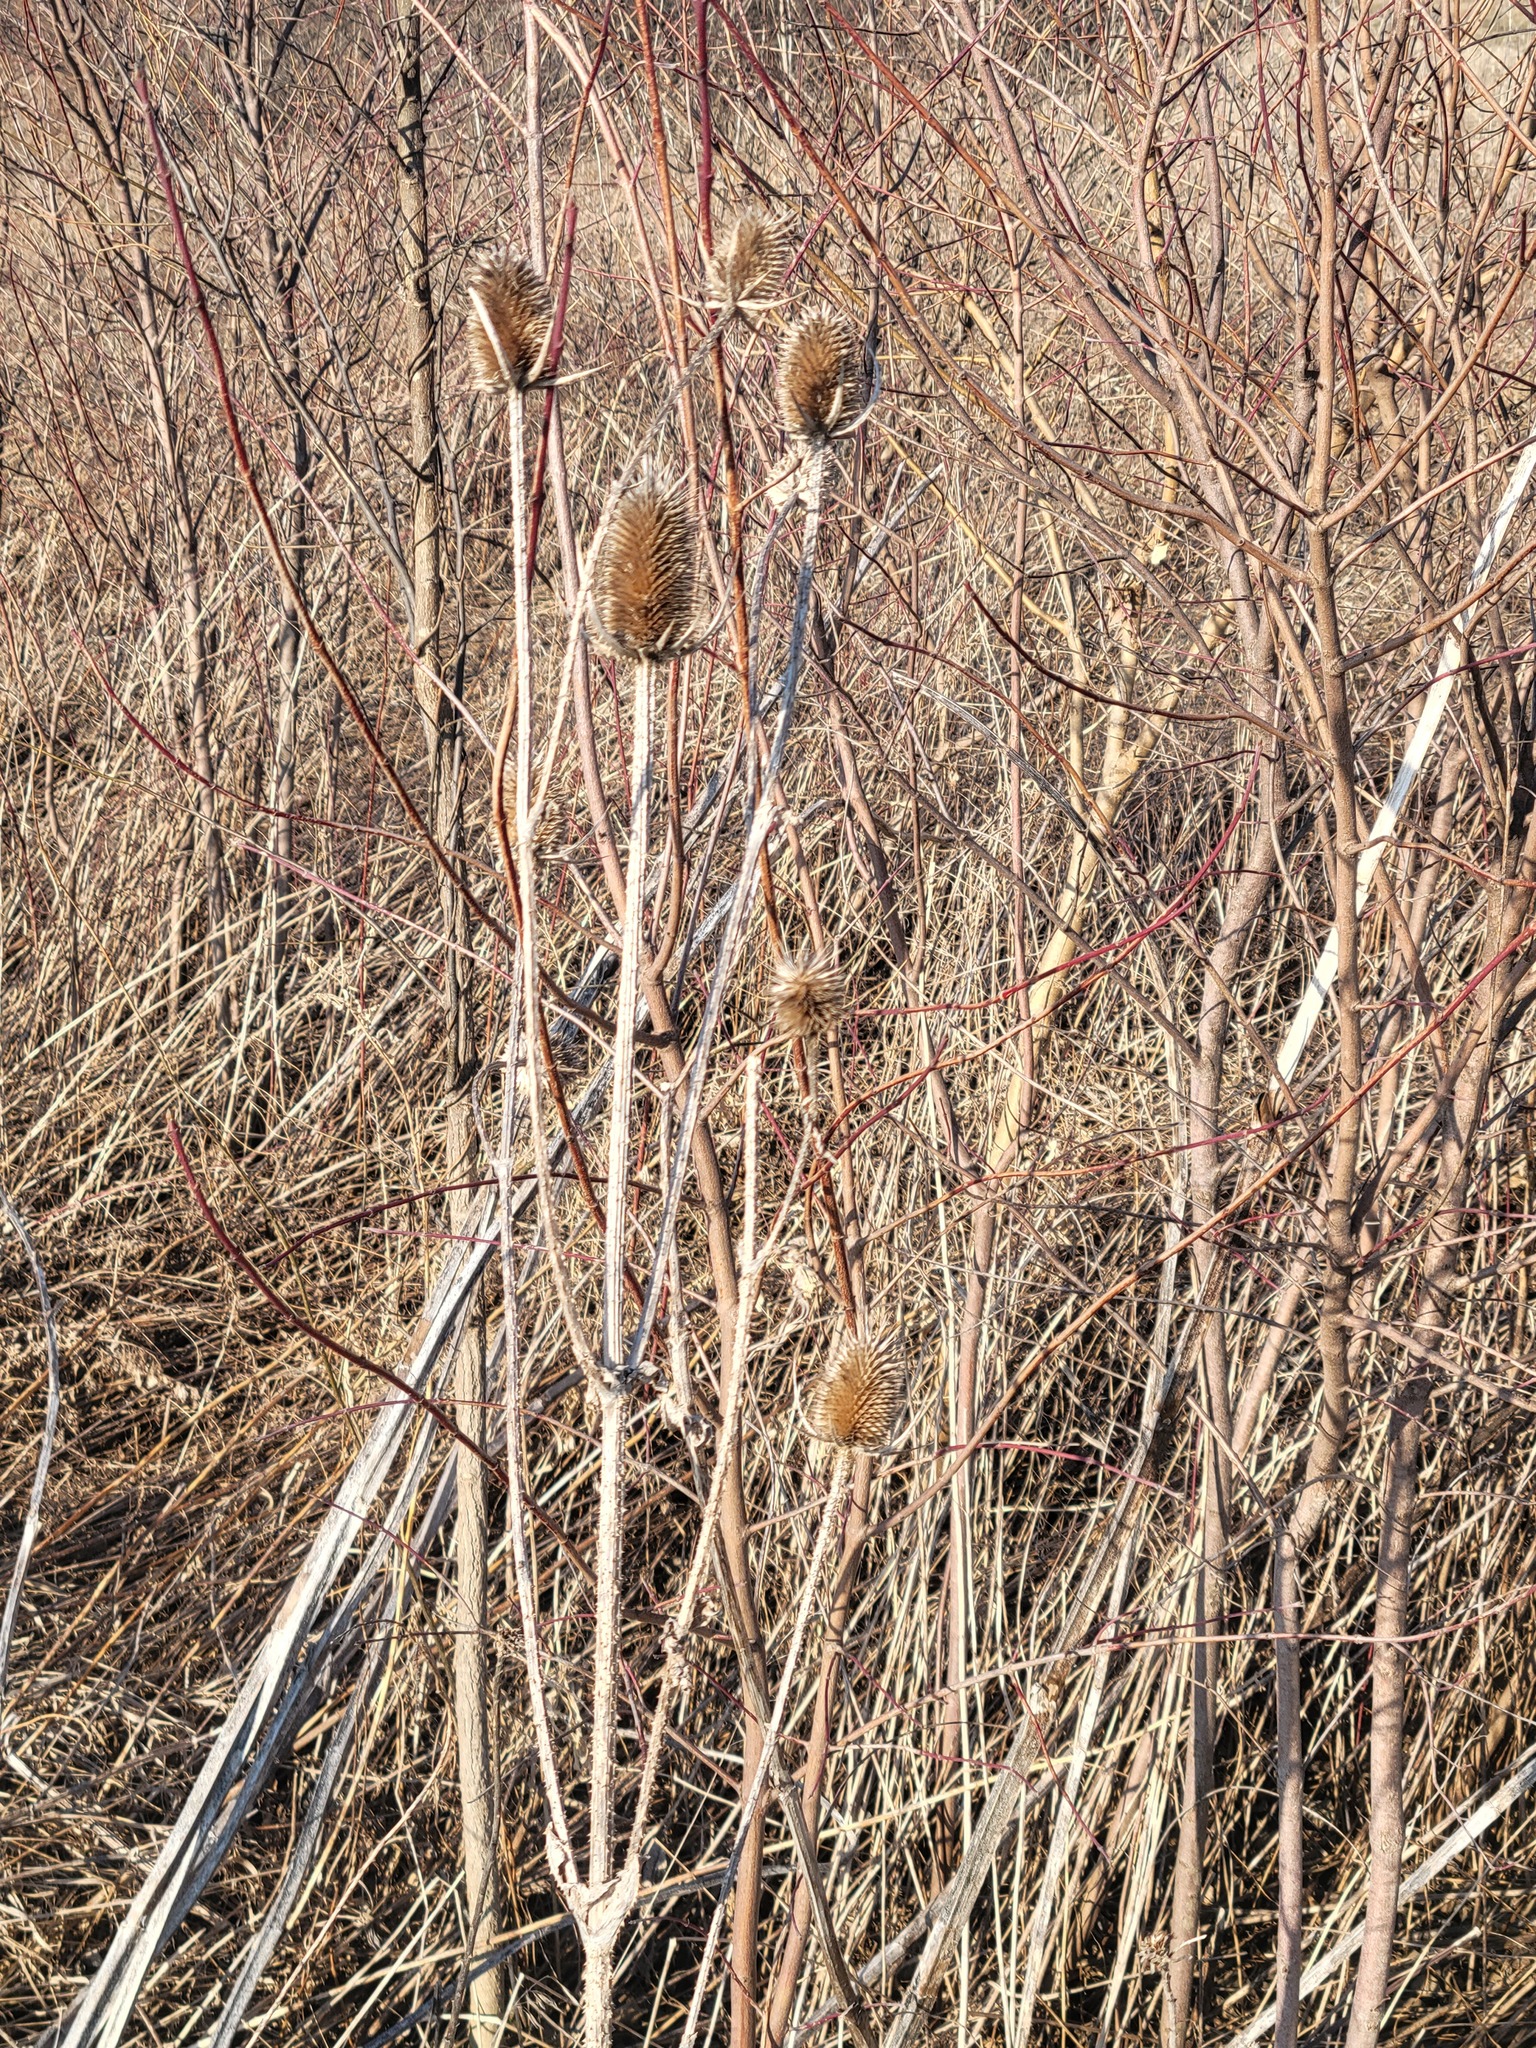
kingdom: Plantae
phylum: Tracheophyta
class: Magnoliopsida
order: Dipsacales
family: Caprifoliaceae
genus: Dipsacus
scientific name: Dipsacus laciniatus
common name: Cut-leaved teasel
